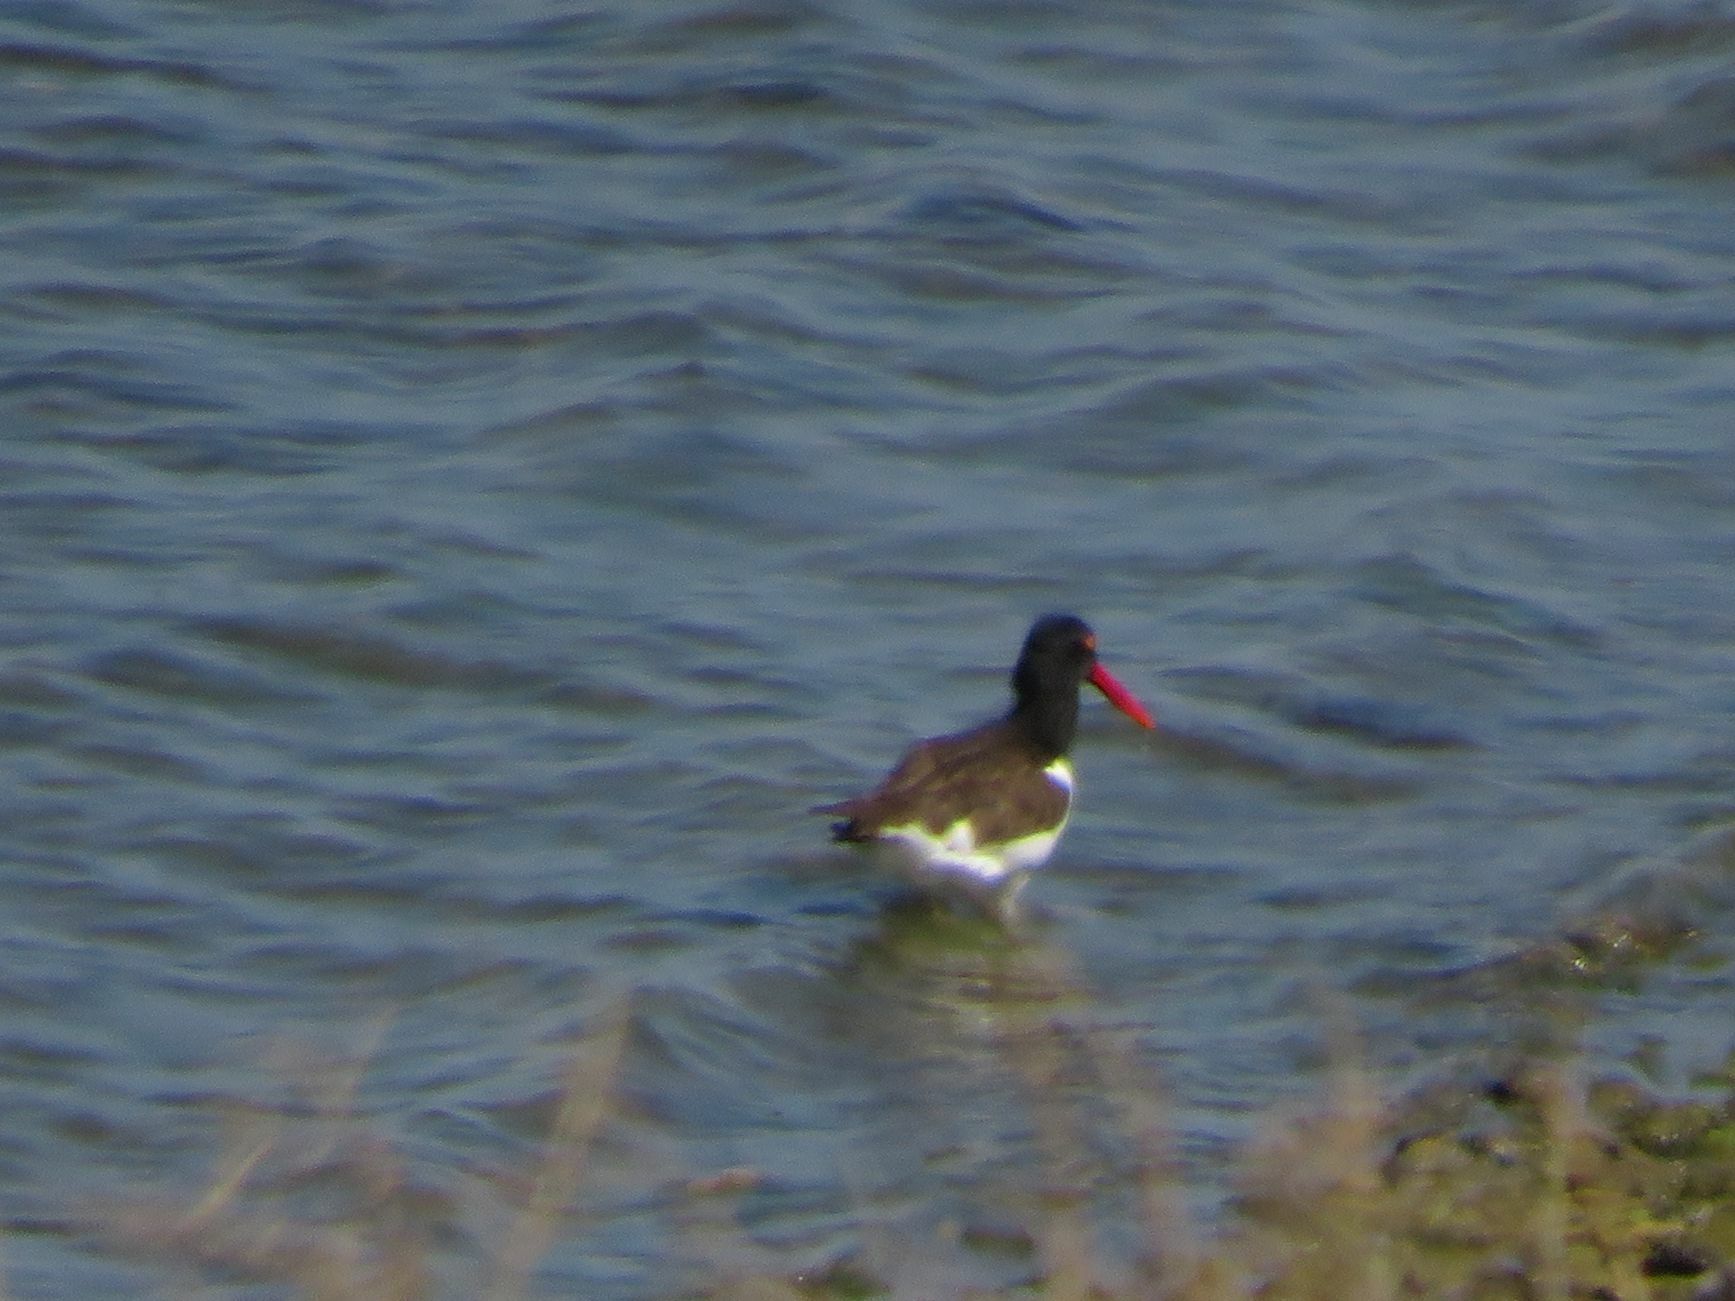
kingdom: Animalia
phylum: Chordata
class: Aves
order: Charadriiformes
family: Haematopodidae
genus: Haematopus
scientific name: Haematopus palliatus
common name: American oystercatcher
